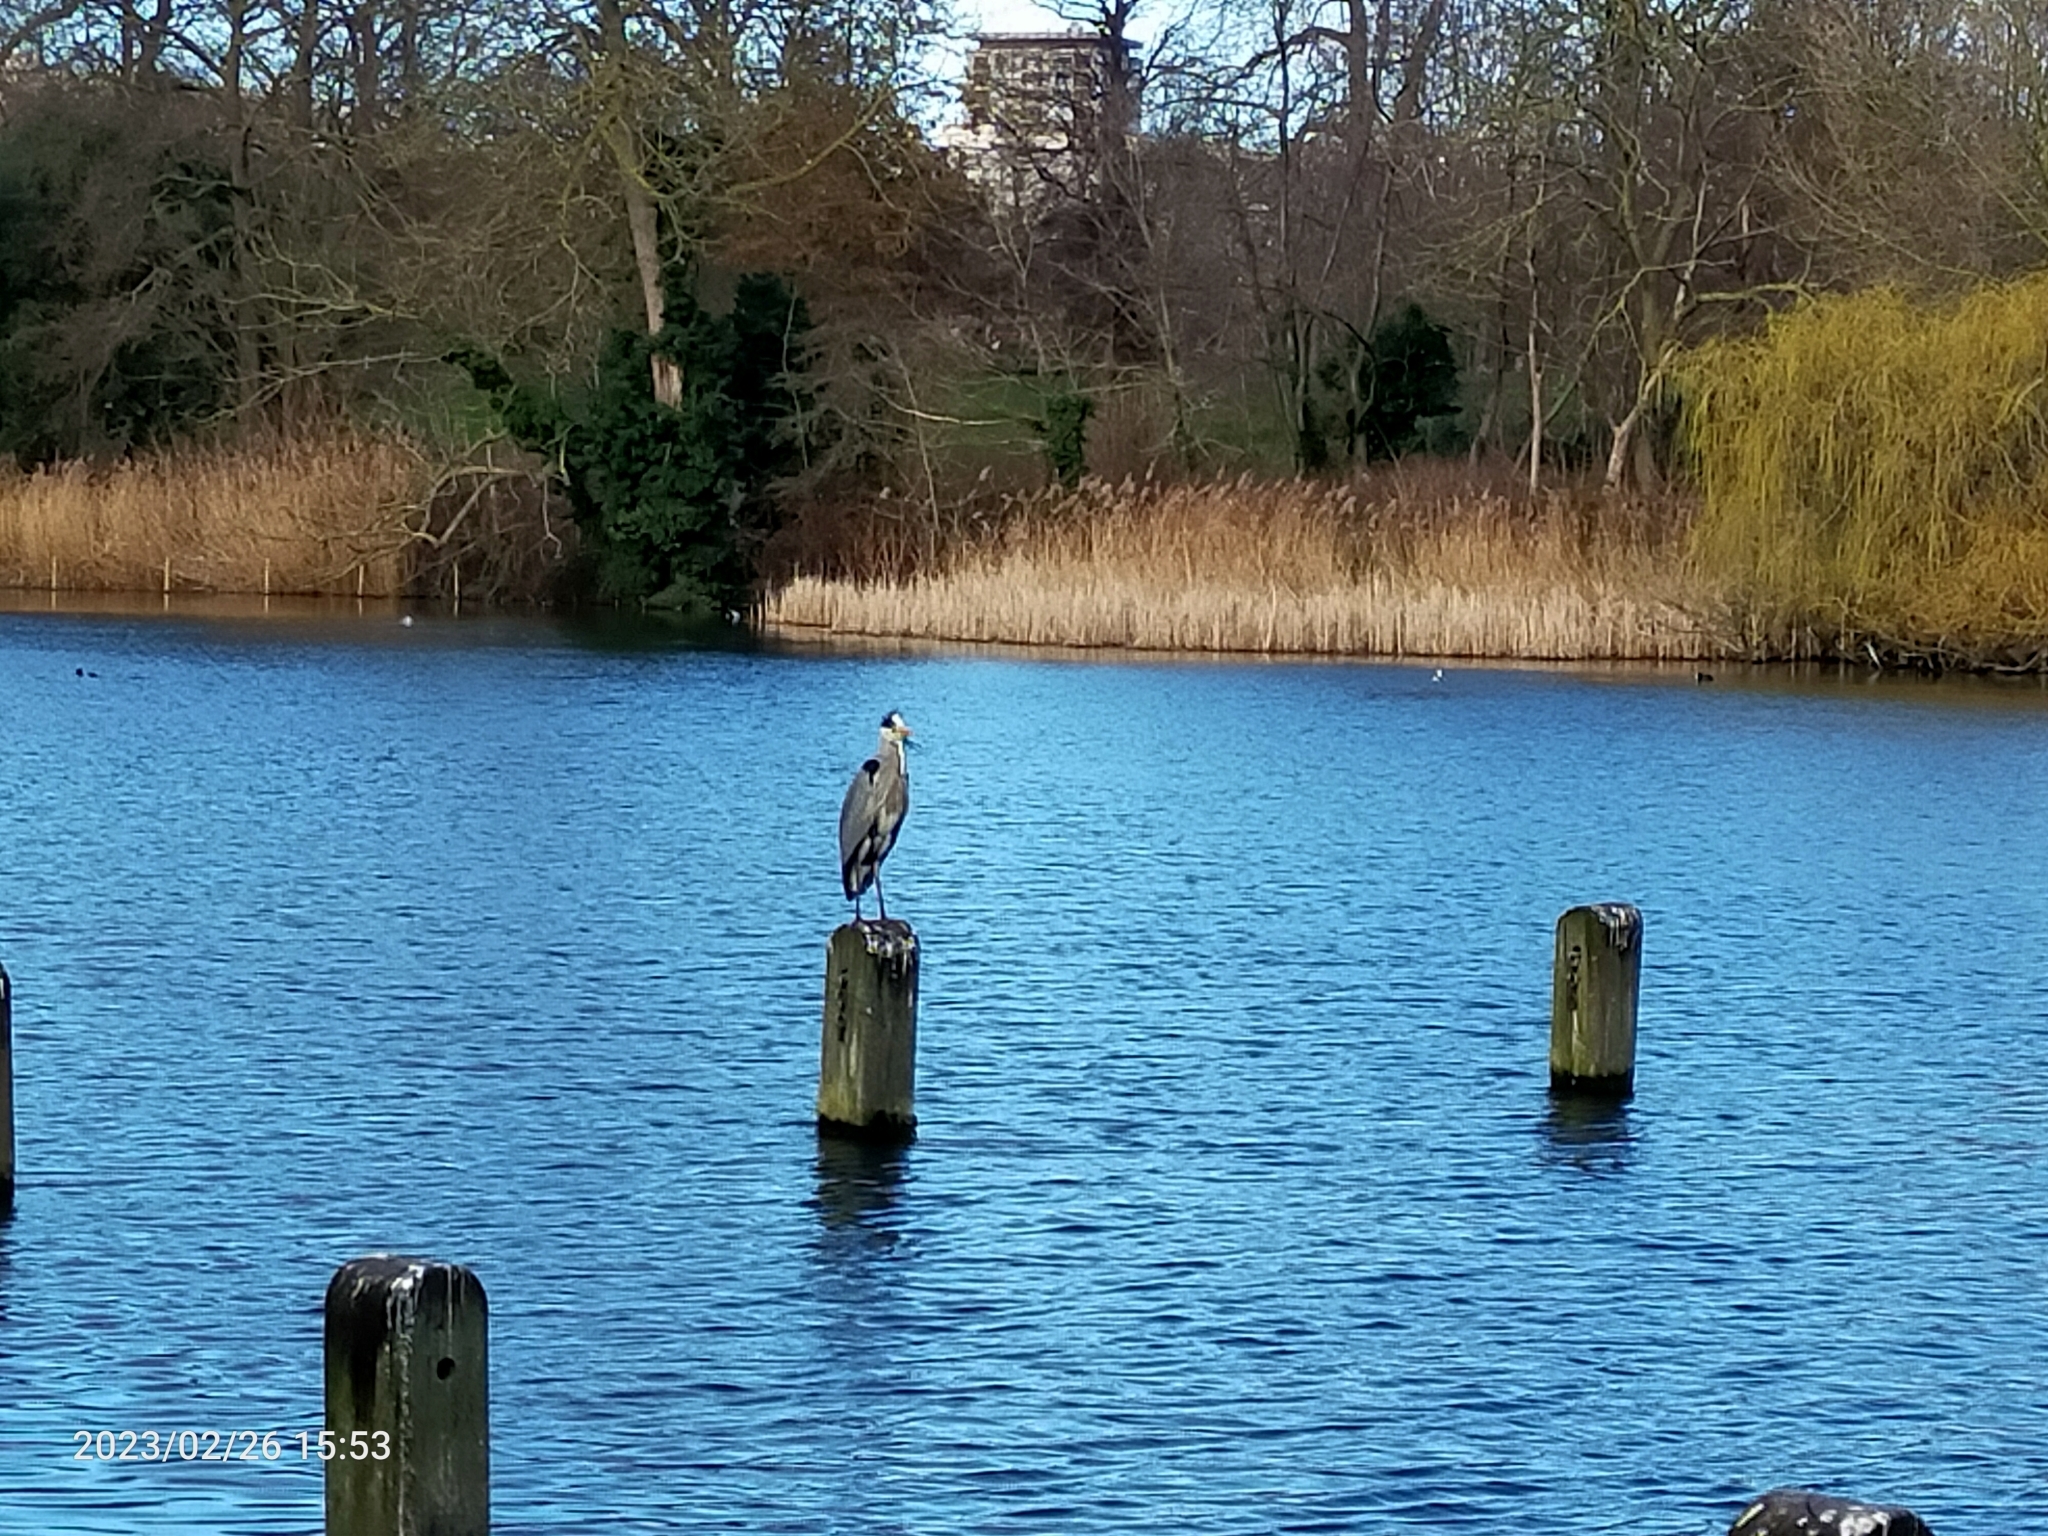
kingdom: Animalia
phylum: Chordata
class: Aves
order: Pelecaniformes
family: Ardeidae
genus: Ardea
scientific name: Ardea cinerea
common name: Grey heron
